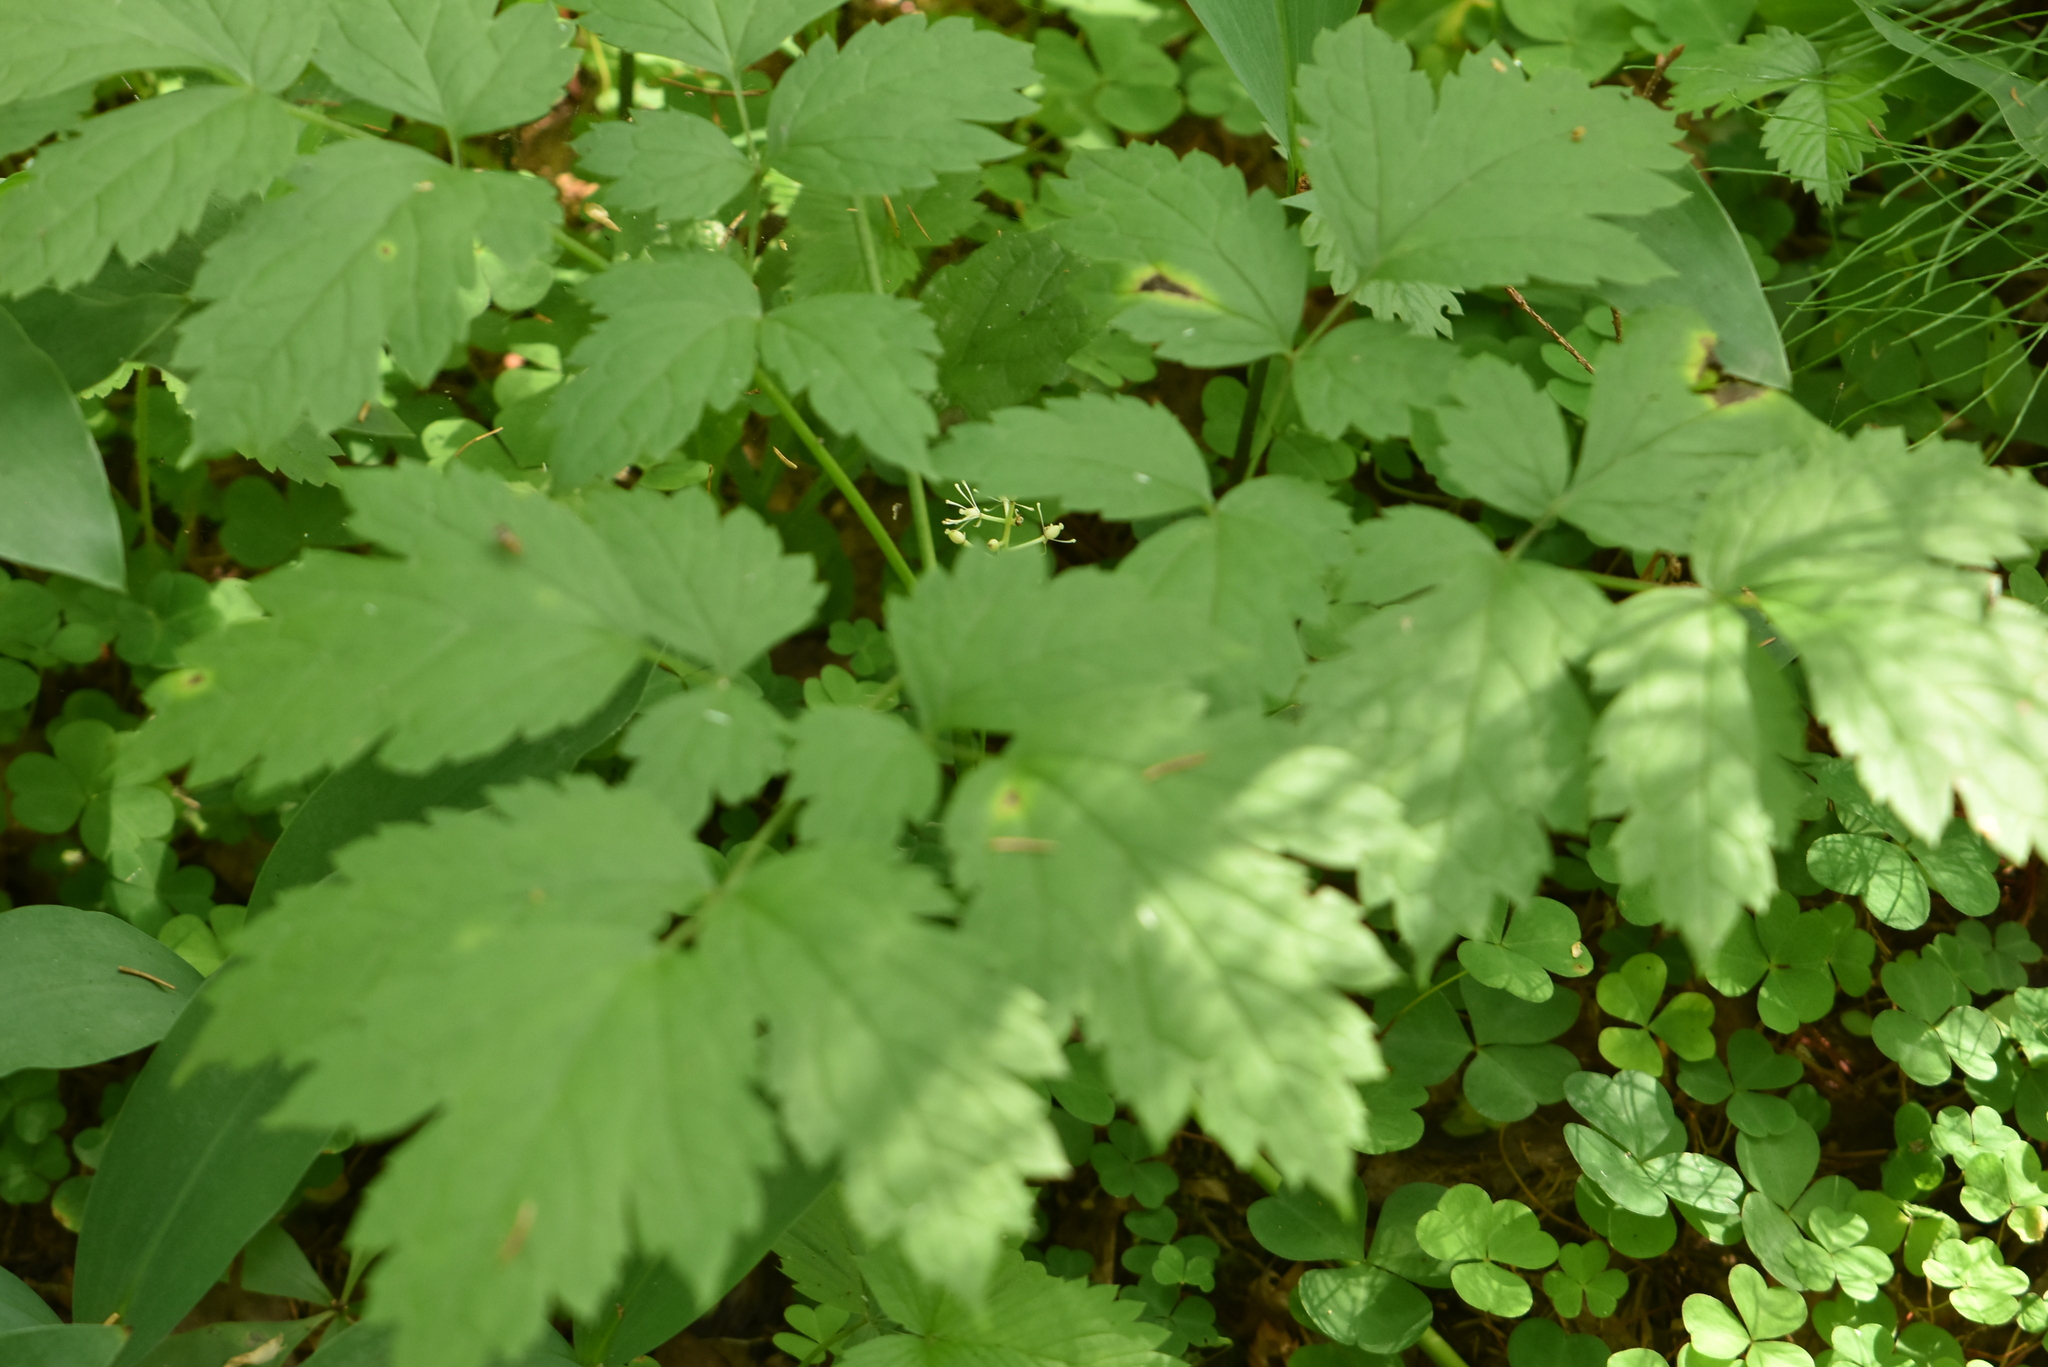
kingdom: Plantae
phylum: Tracheophyta
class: Magnoliopsida
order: Ranunculales
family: Ranunculaceae
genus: Actaea
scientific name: Actaea spicata
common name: Baneberry
